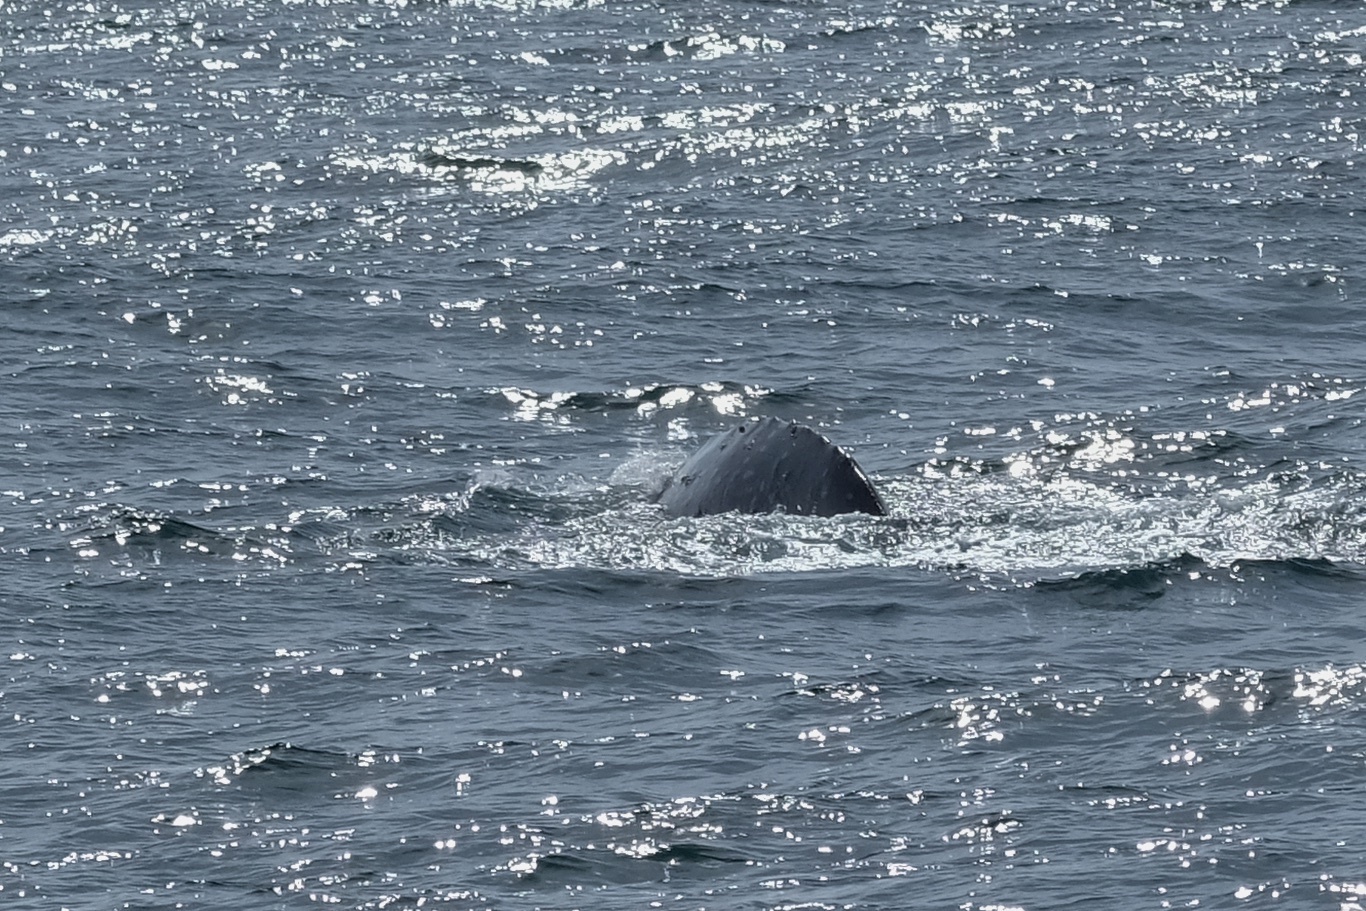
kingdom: Animalia
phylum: Chordata
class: Mammalia
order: Cetacea
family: Eschrichtiidae
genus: Eschrichtius
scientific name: Eschrichtius robustus
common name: Gray whale
